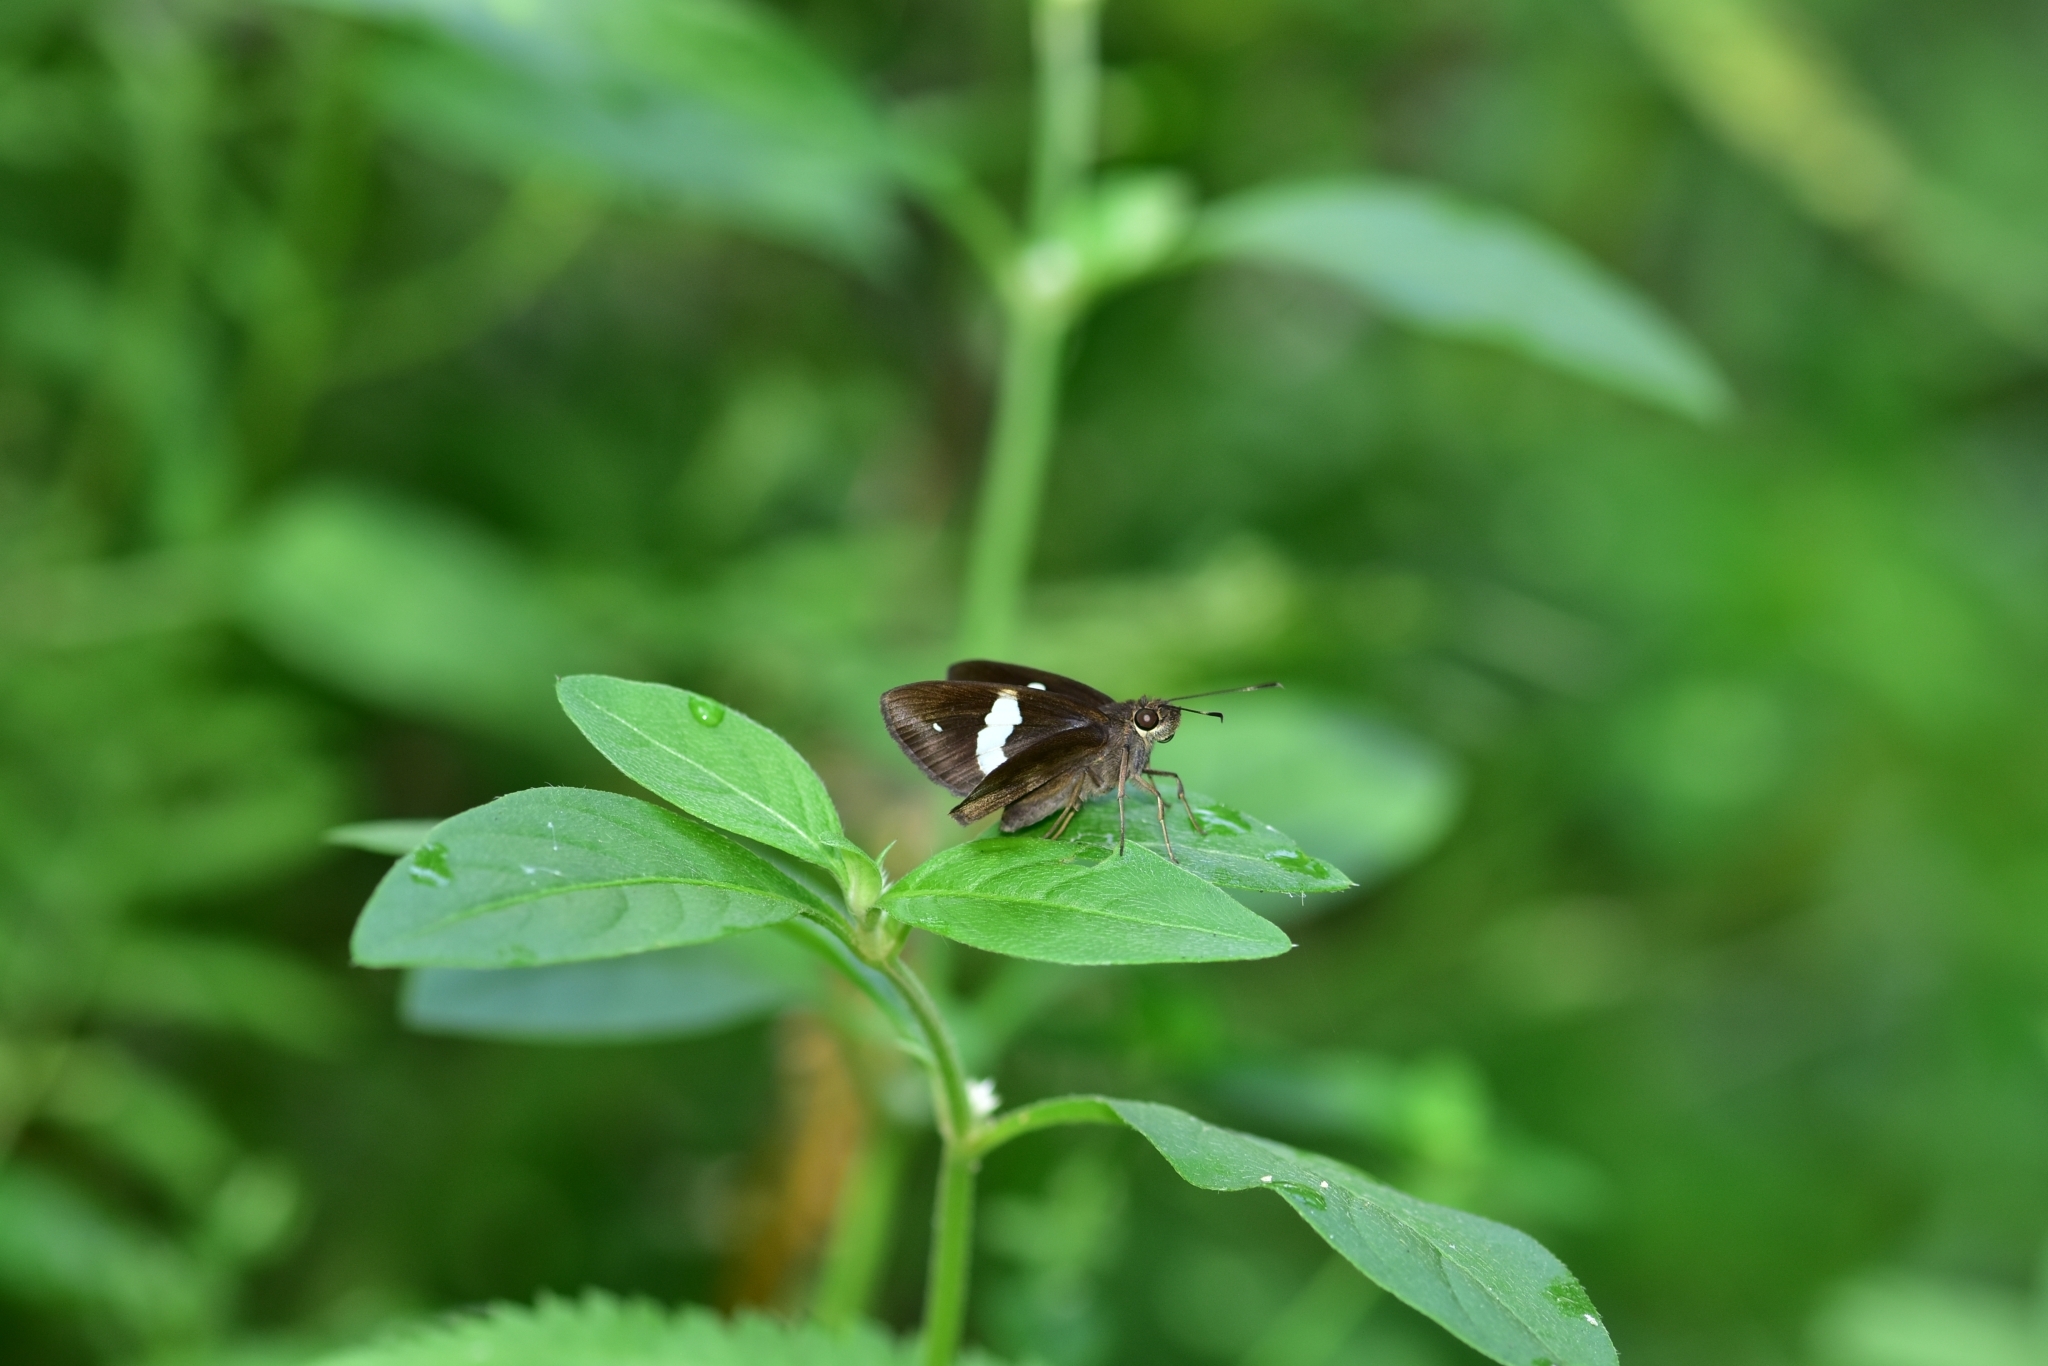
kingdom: Animalia
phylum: Arthropoda
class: Insecta
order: Lepidoptera
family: Hesperiidae
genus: Notocrypta
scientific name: Notocrypta paralysos
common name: Common banded demon
